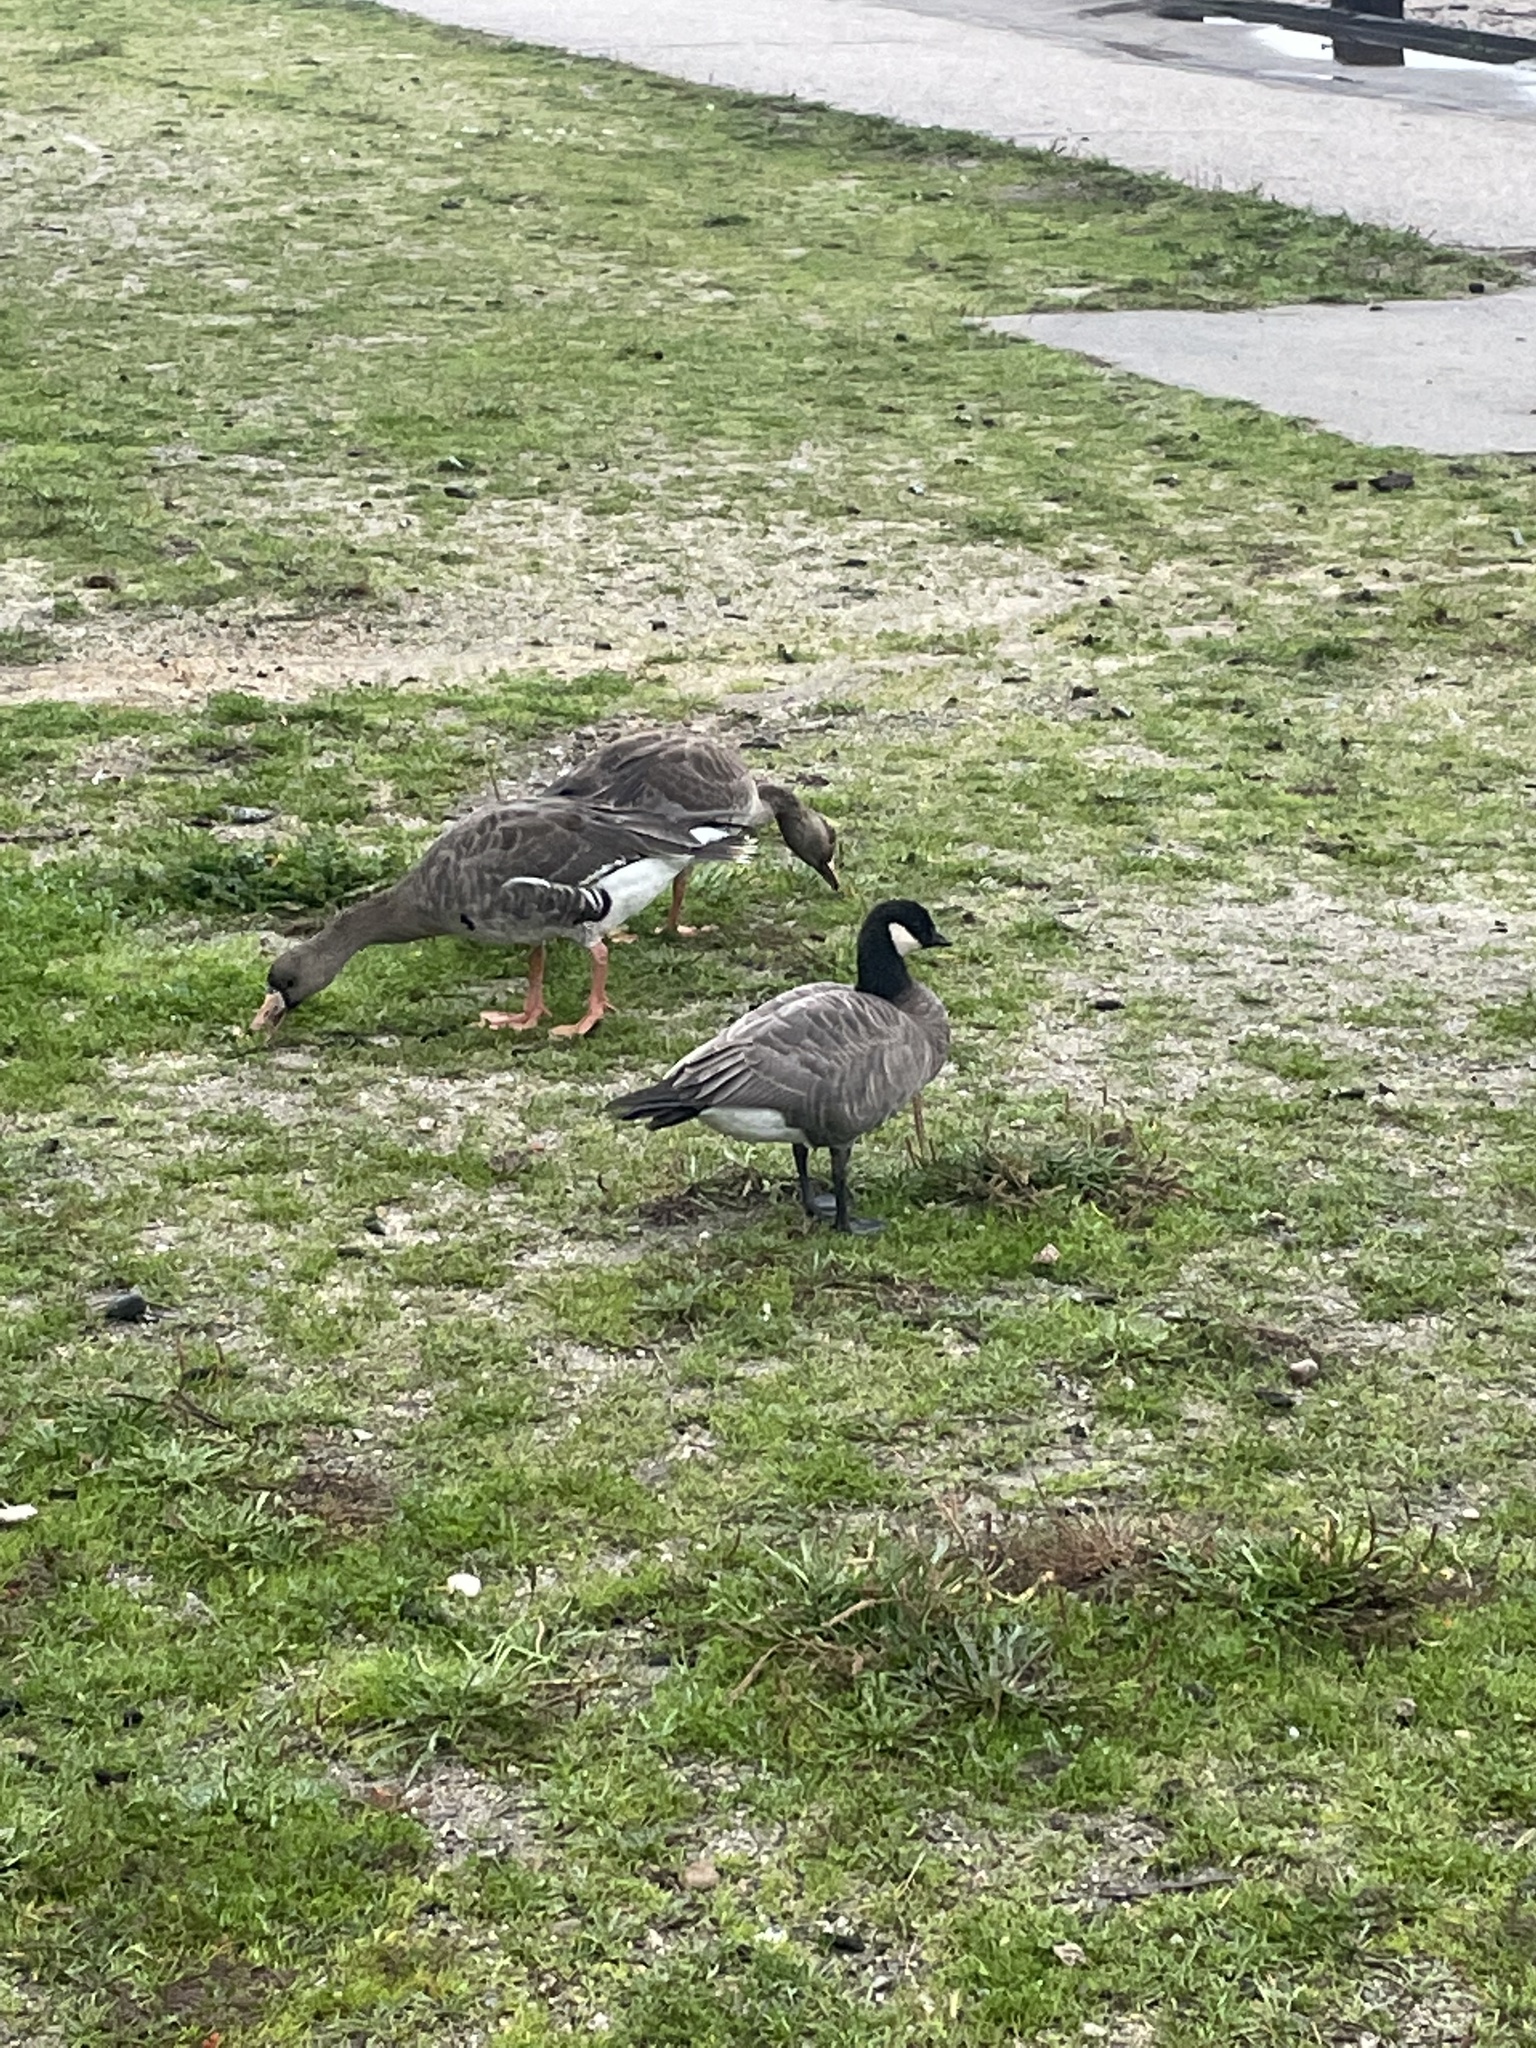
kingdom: Animalia
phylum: Chordata
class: Aves
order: Anseriformes
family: Anatidae
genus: Branta
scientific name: Branta hutchinsii
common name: Cackling goose
